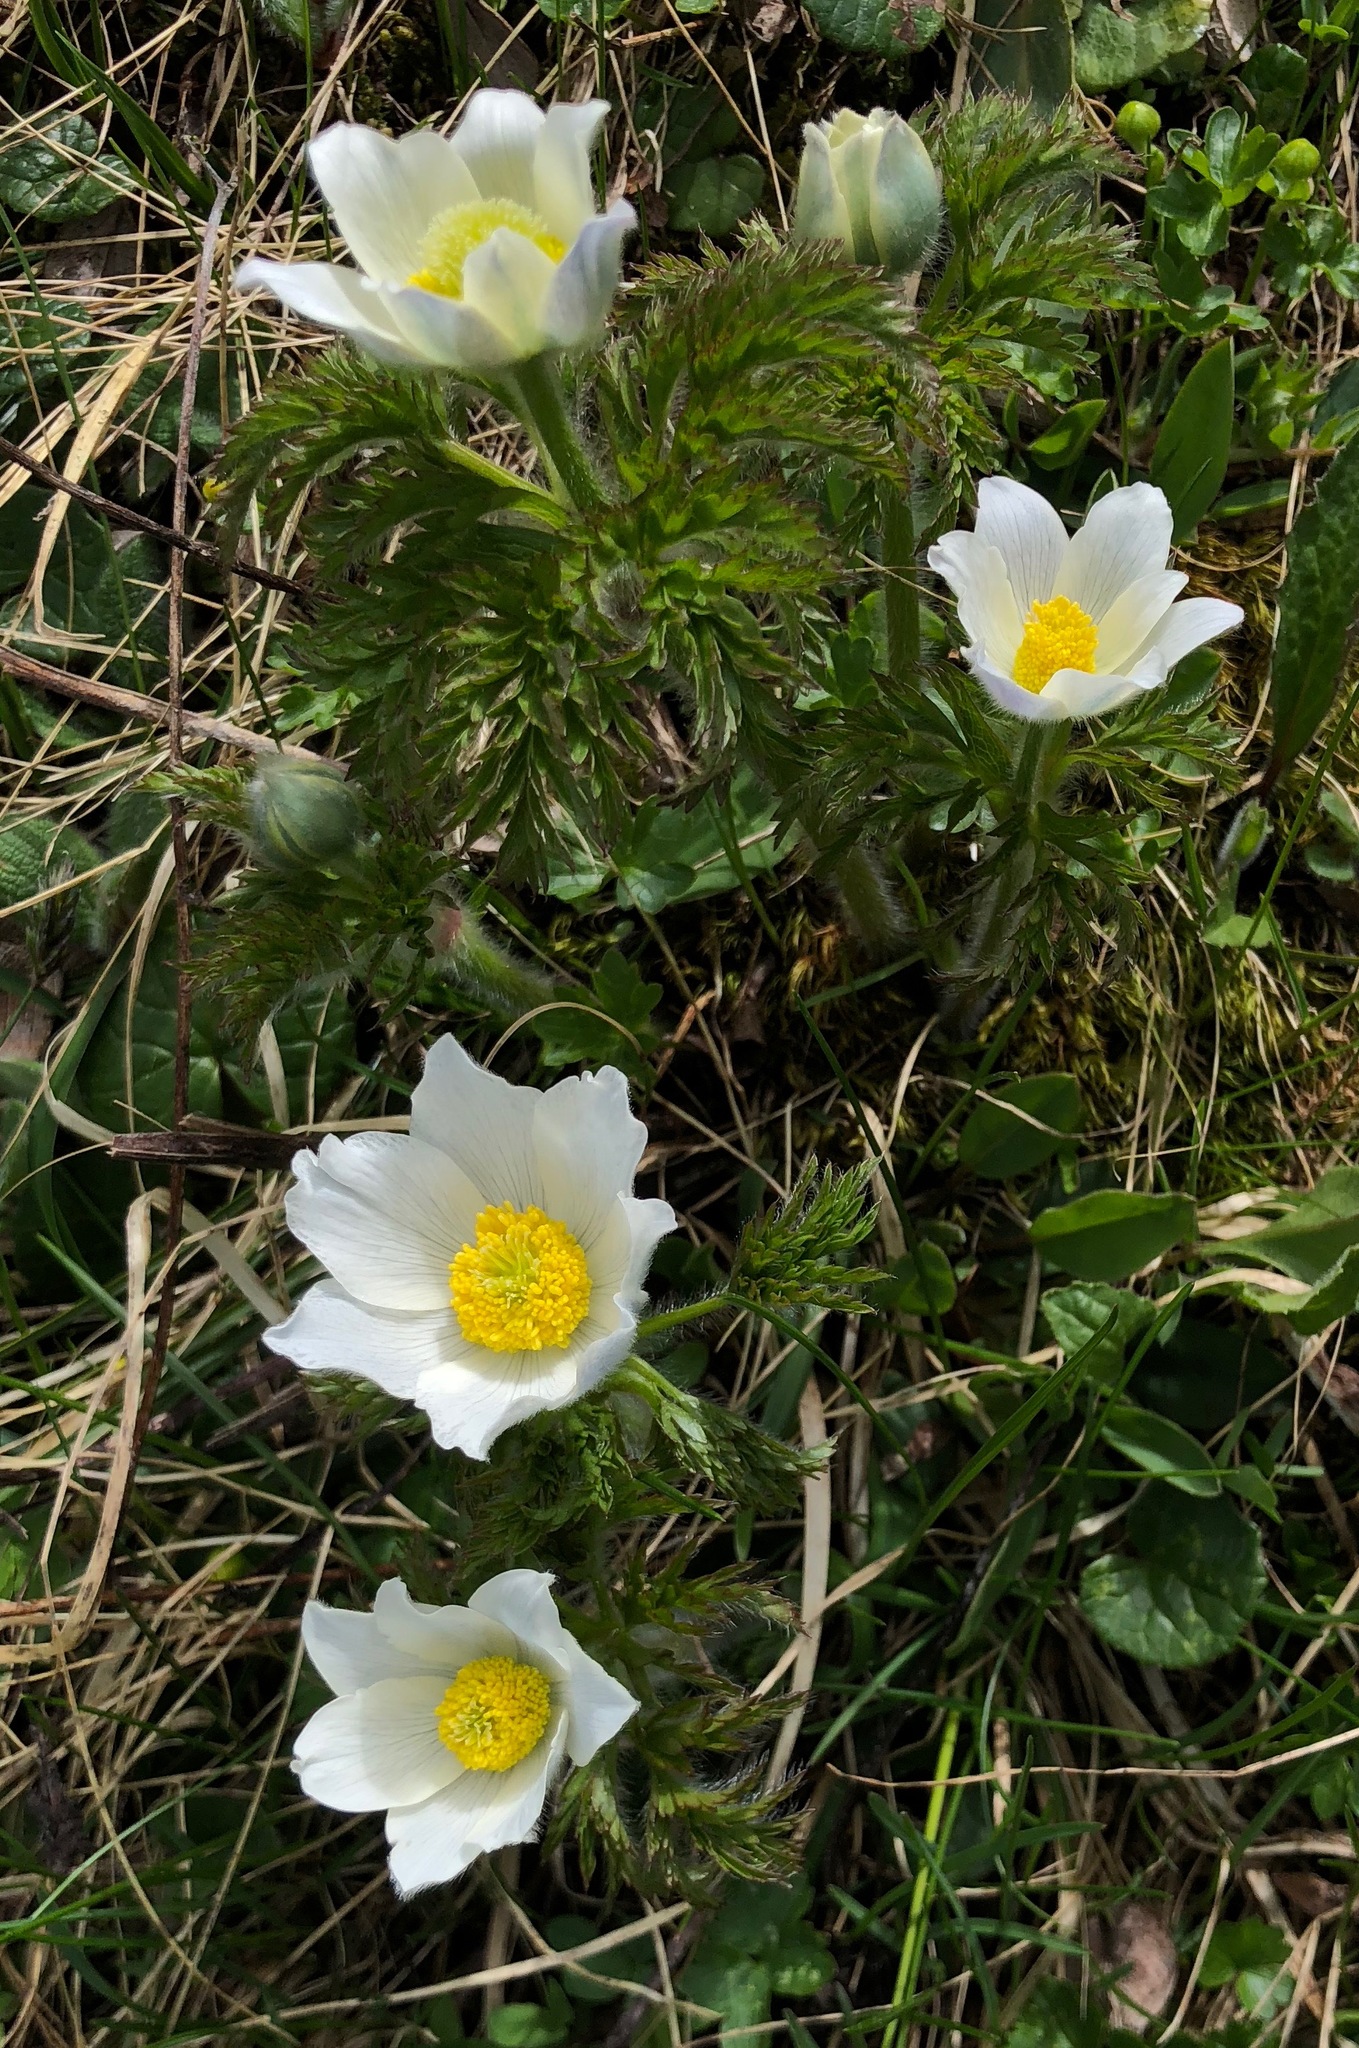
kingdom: Plantae
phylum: Tracheophyta
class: Magnoliopsida
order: Ranunculales
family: Ranunculaceae
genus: Pulsatilla
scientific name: Pulsatilla alpina
